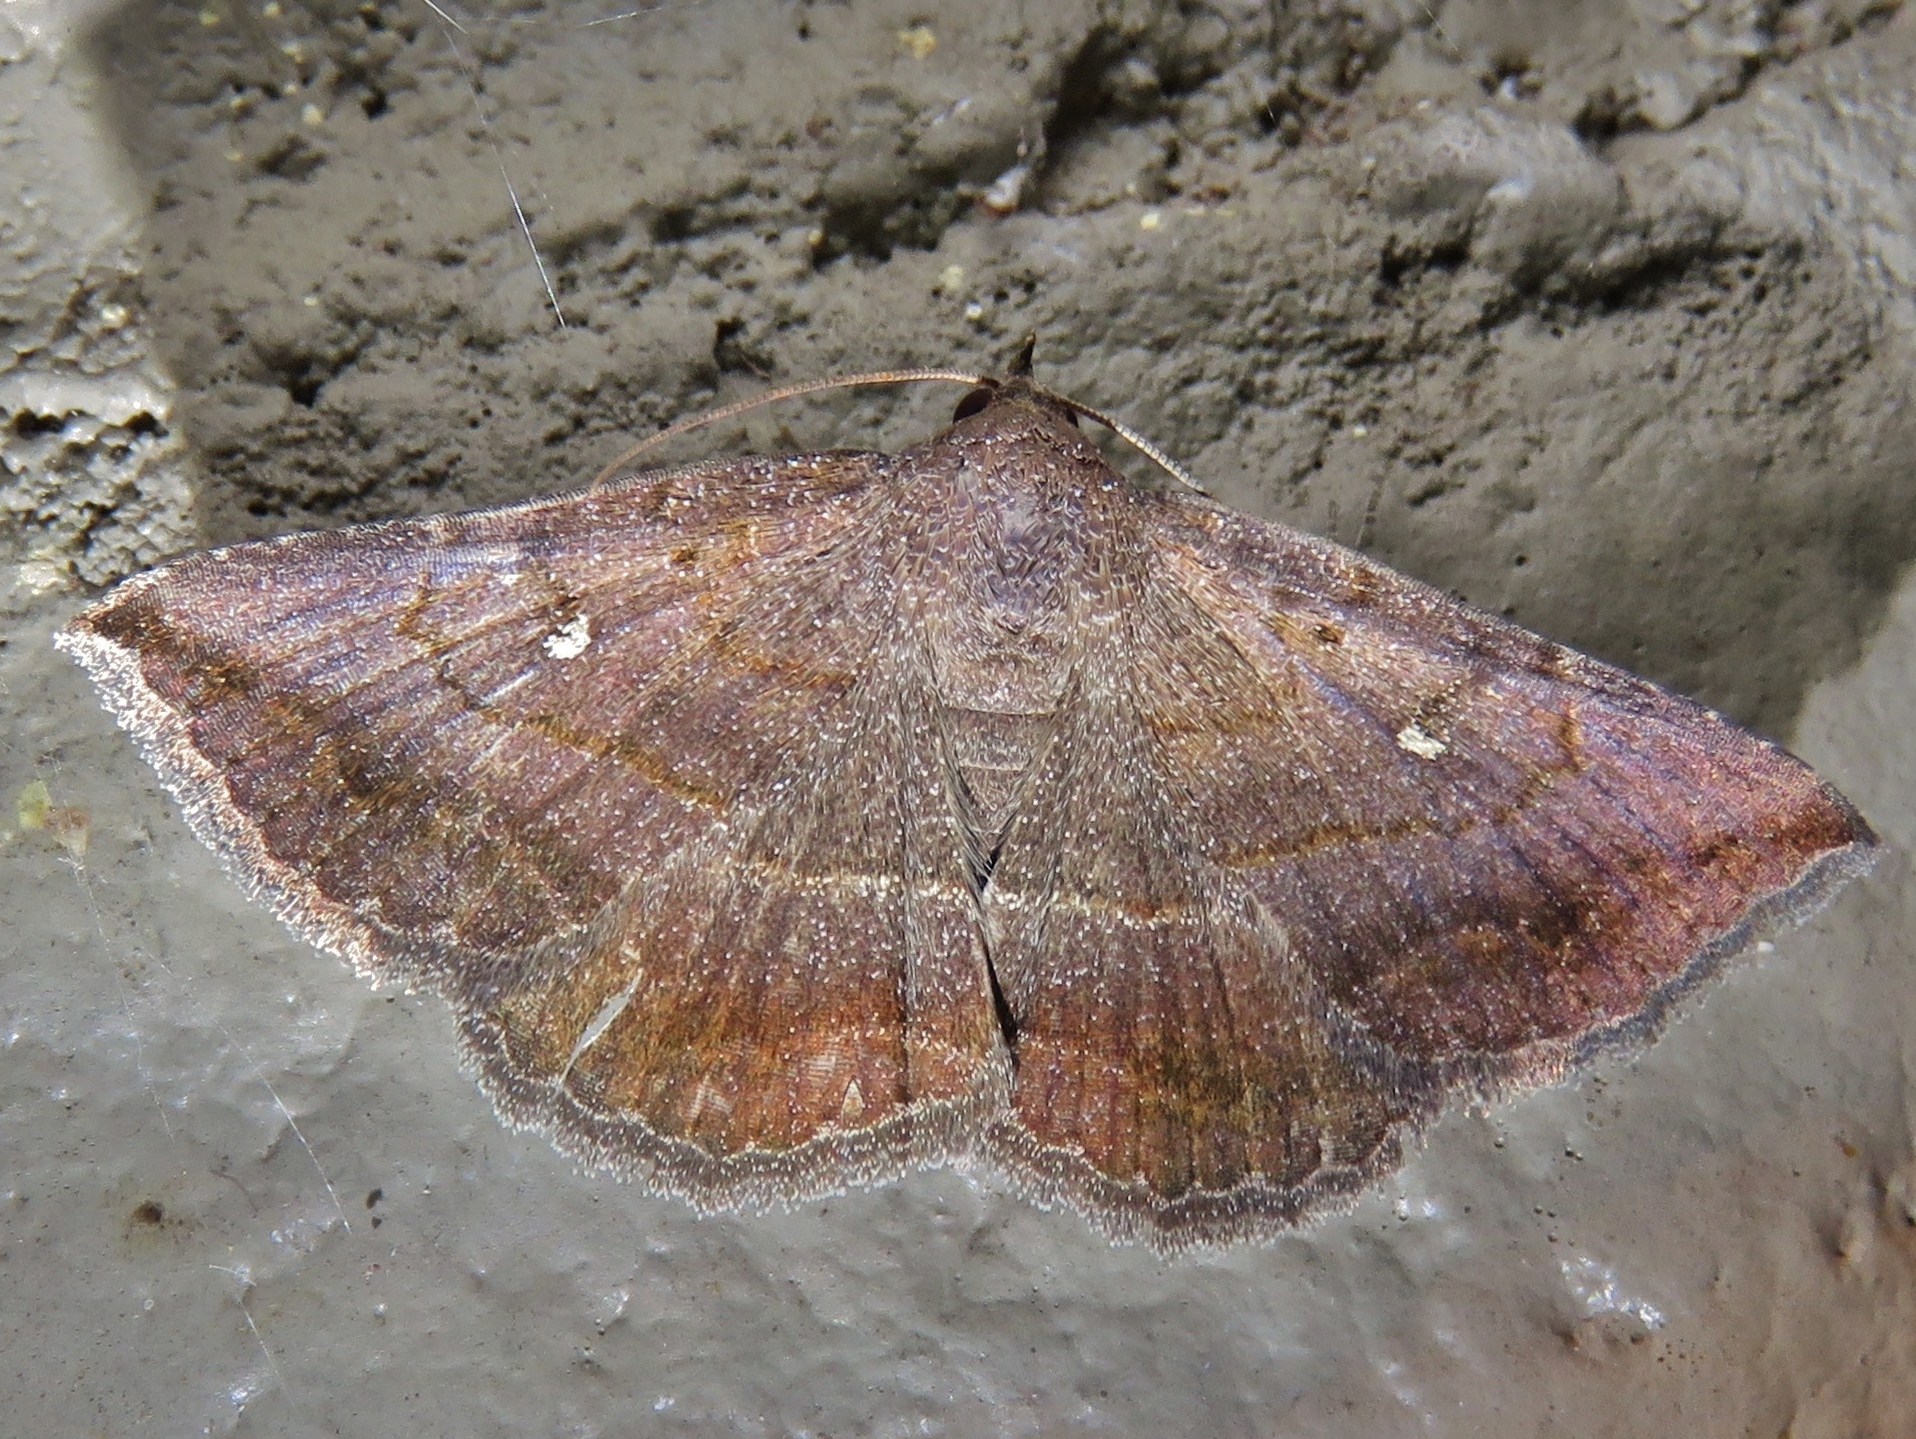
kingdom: Animalia
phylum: Arthropoda
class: Insecta
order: Lepidoptera
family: Erebidae
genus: Lesmone
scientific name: Lesmone detrahens
